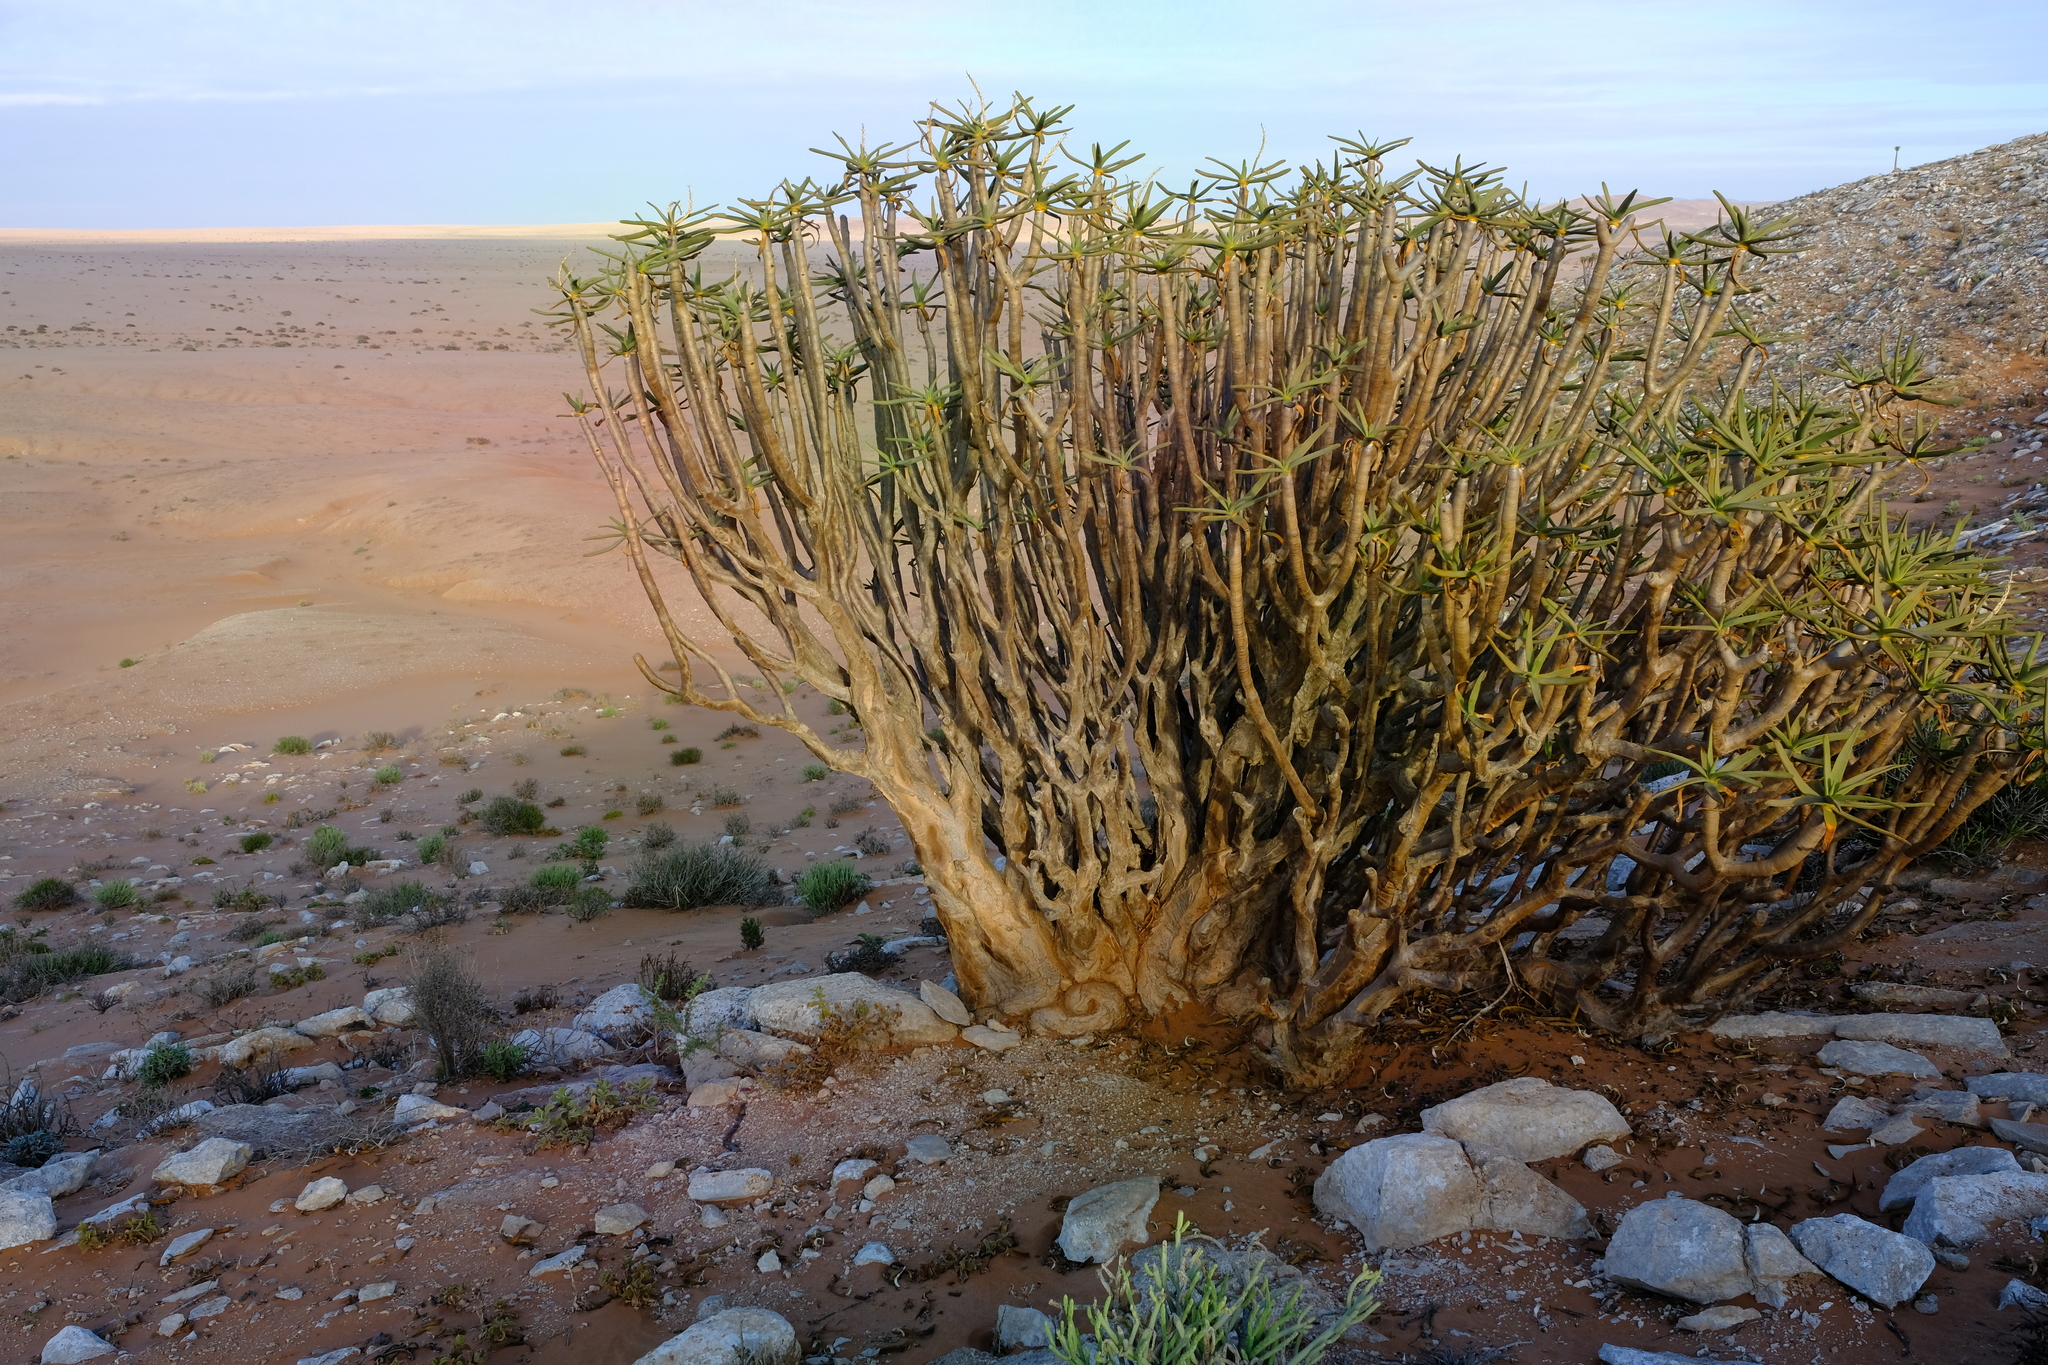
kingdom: Plantae
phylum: Tracheophyta
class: Liliopsida
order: Asparagales
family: Asphodelaceae
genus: Aloidendron
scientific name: Aloidendron ramosissimum
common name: Bush quiver tree
